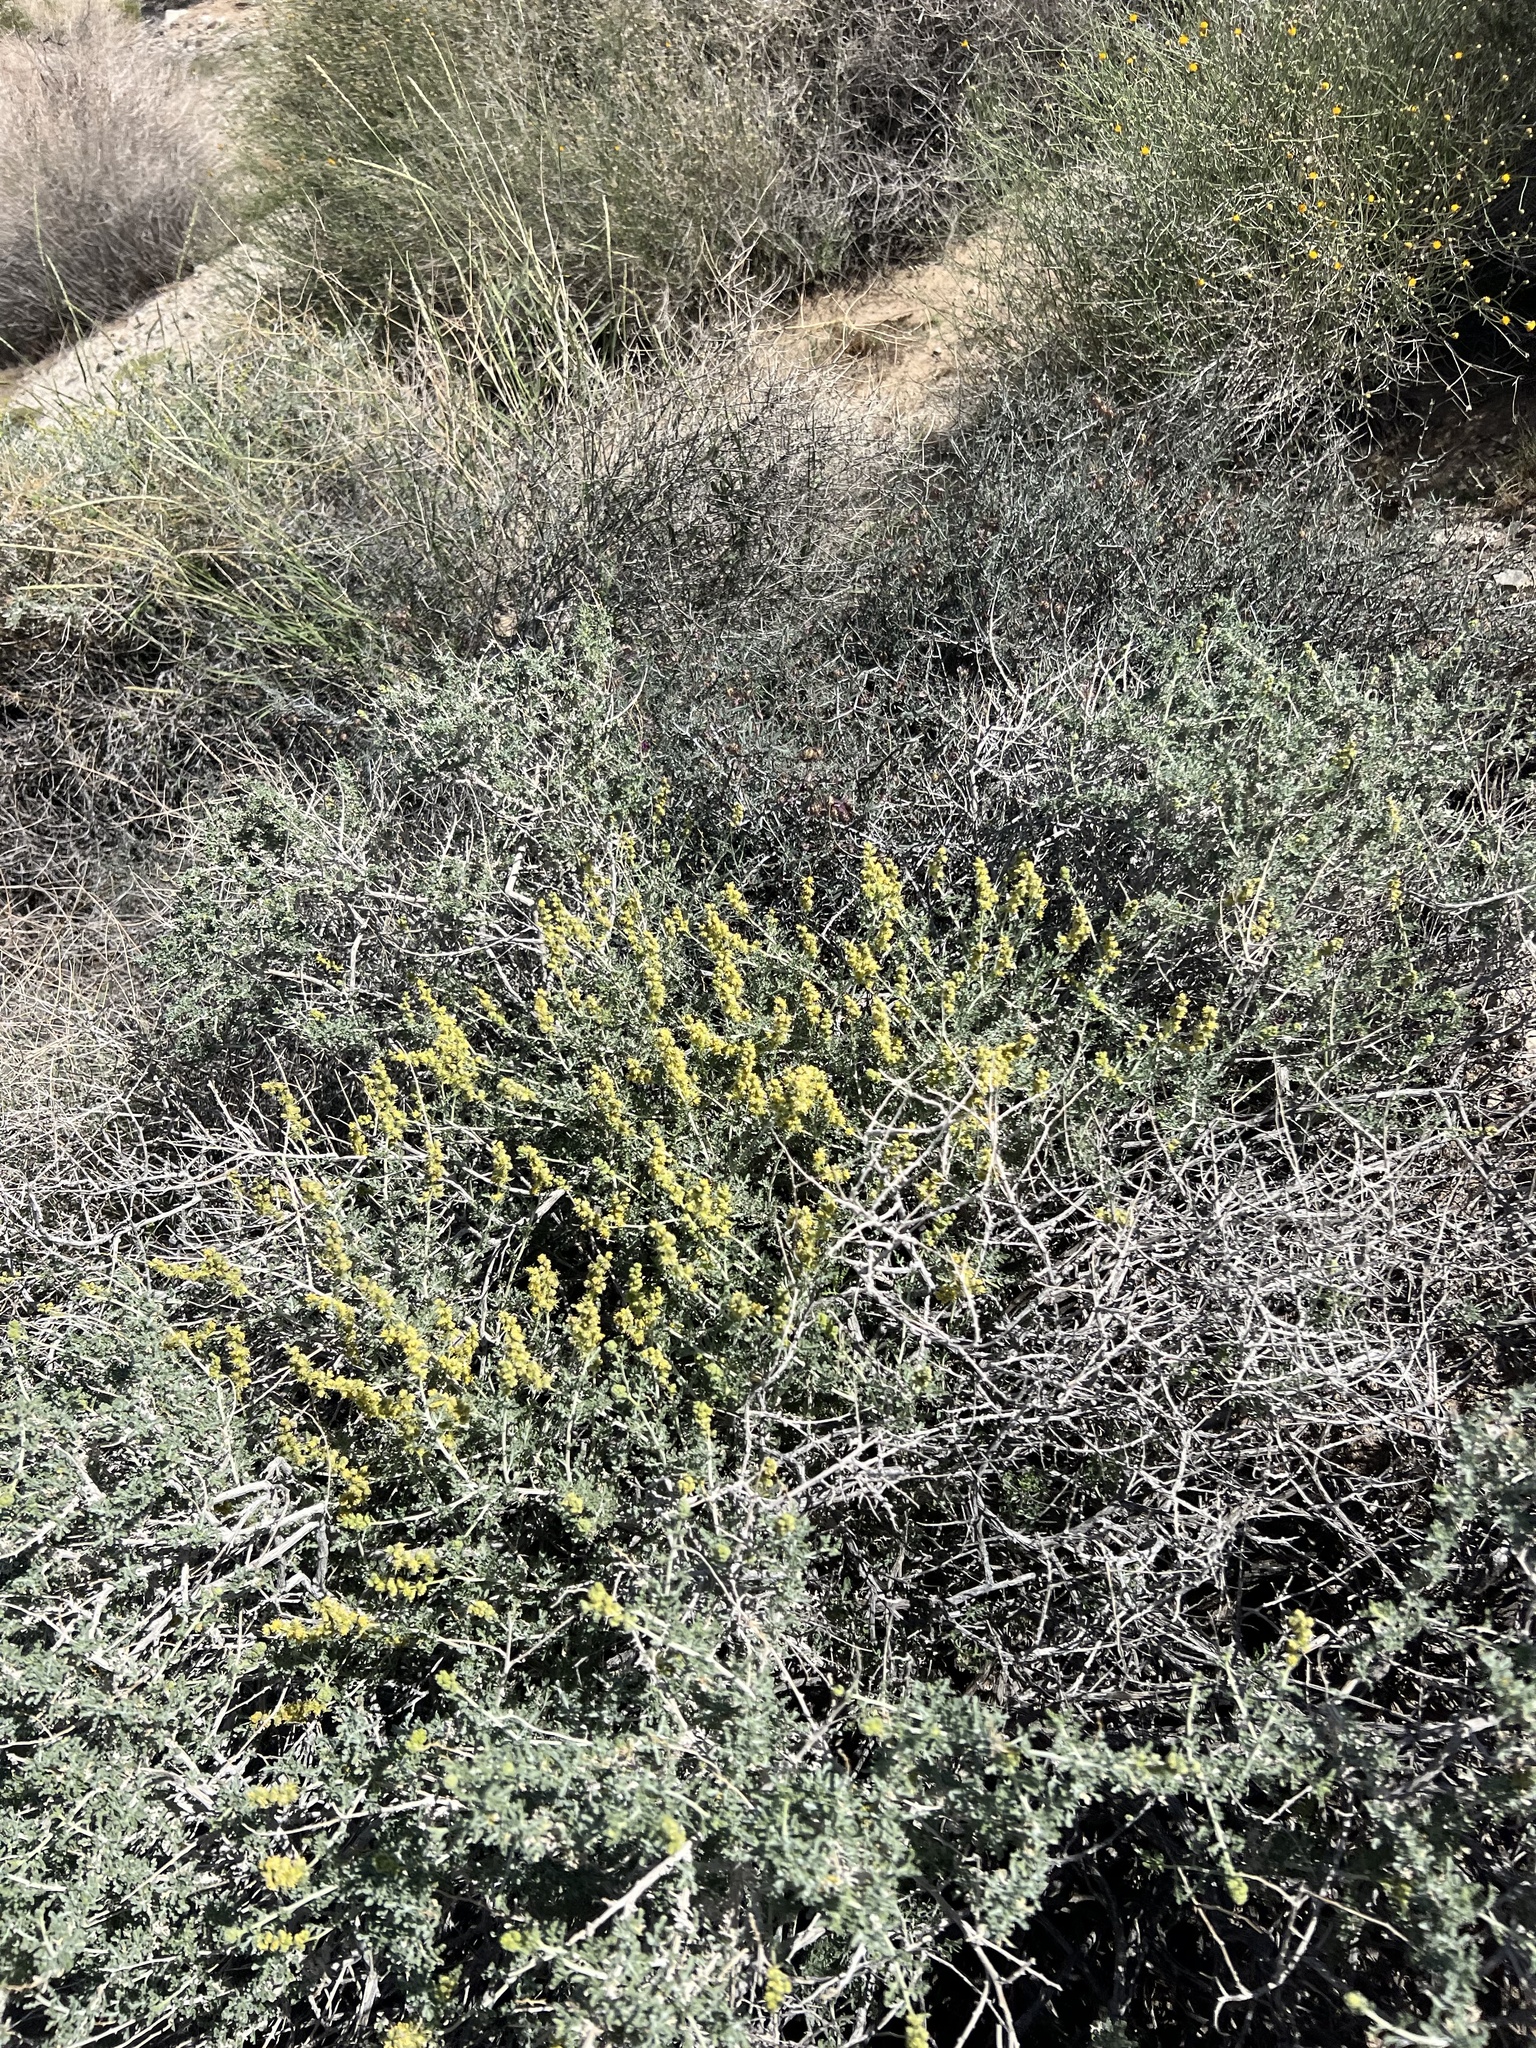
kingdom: Plantae
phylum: Tracheophyta
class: Magnoliopsida
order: Asterales
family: Asteraceae
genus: Ambrosia
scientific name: Ambrosia dumosa
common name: Bur-sage
